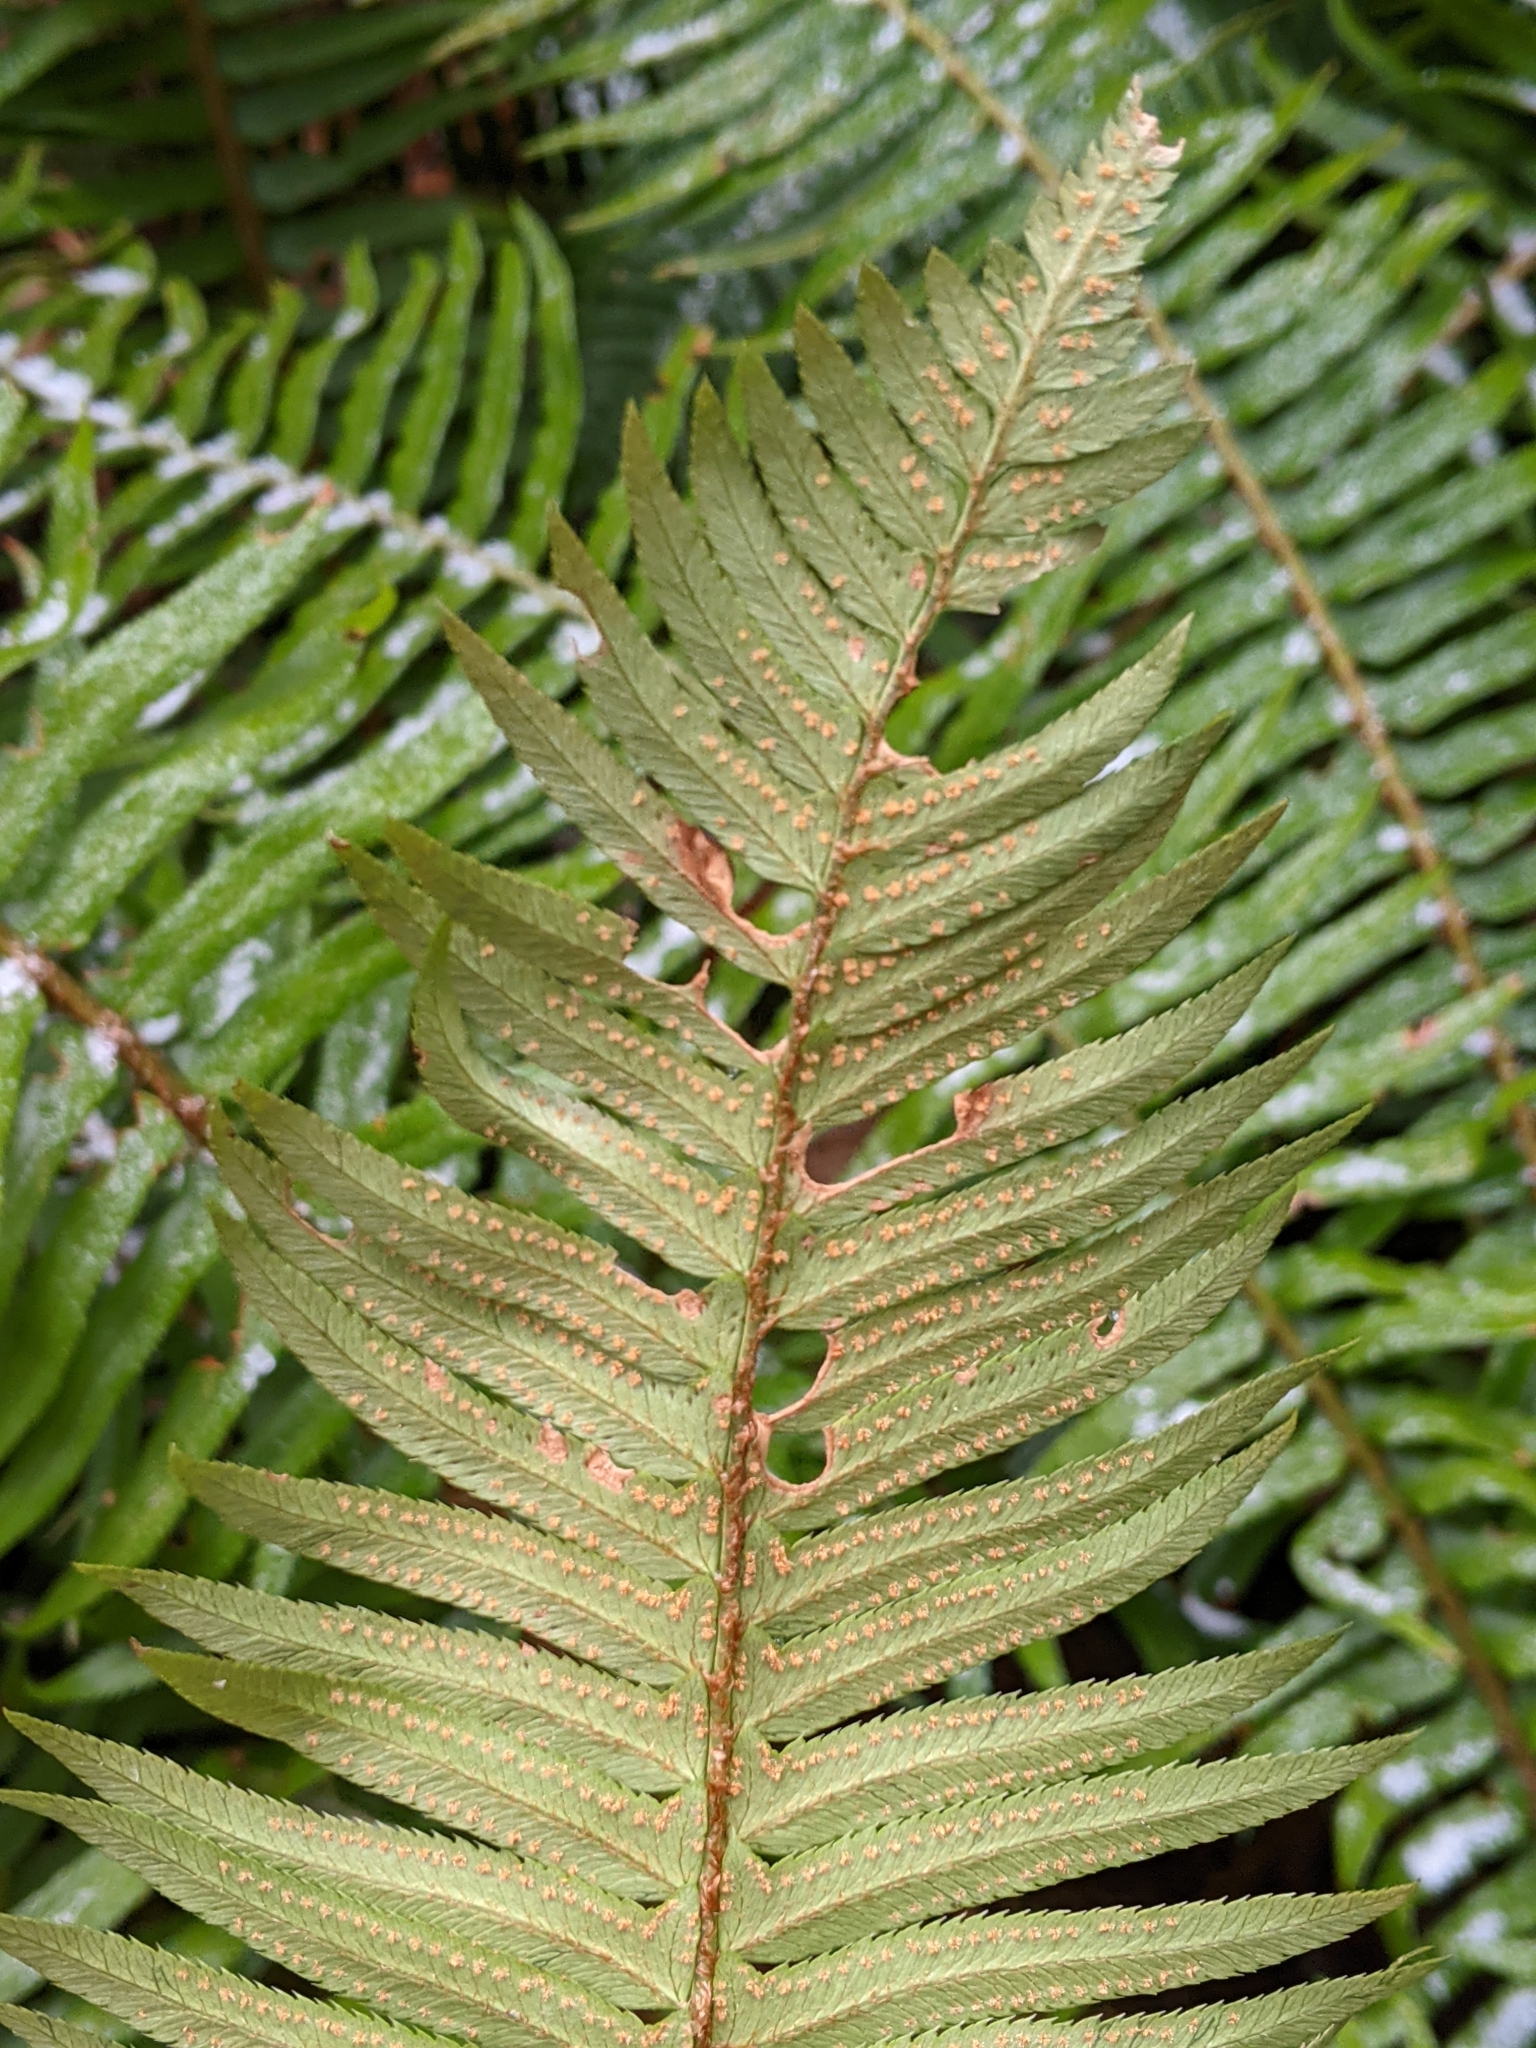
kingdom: Plantae
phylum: Tracheophyta
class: Polypodiopsida
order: Polypodiales
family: Dryopteridaceae
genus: Polystichum
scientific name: Polystichum munitum
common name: Western sword-fern
